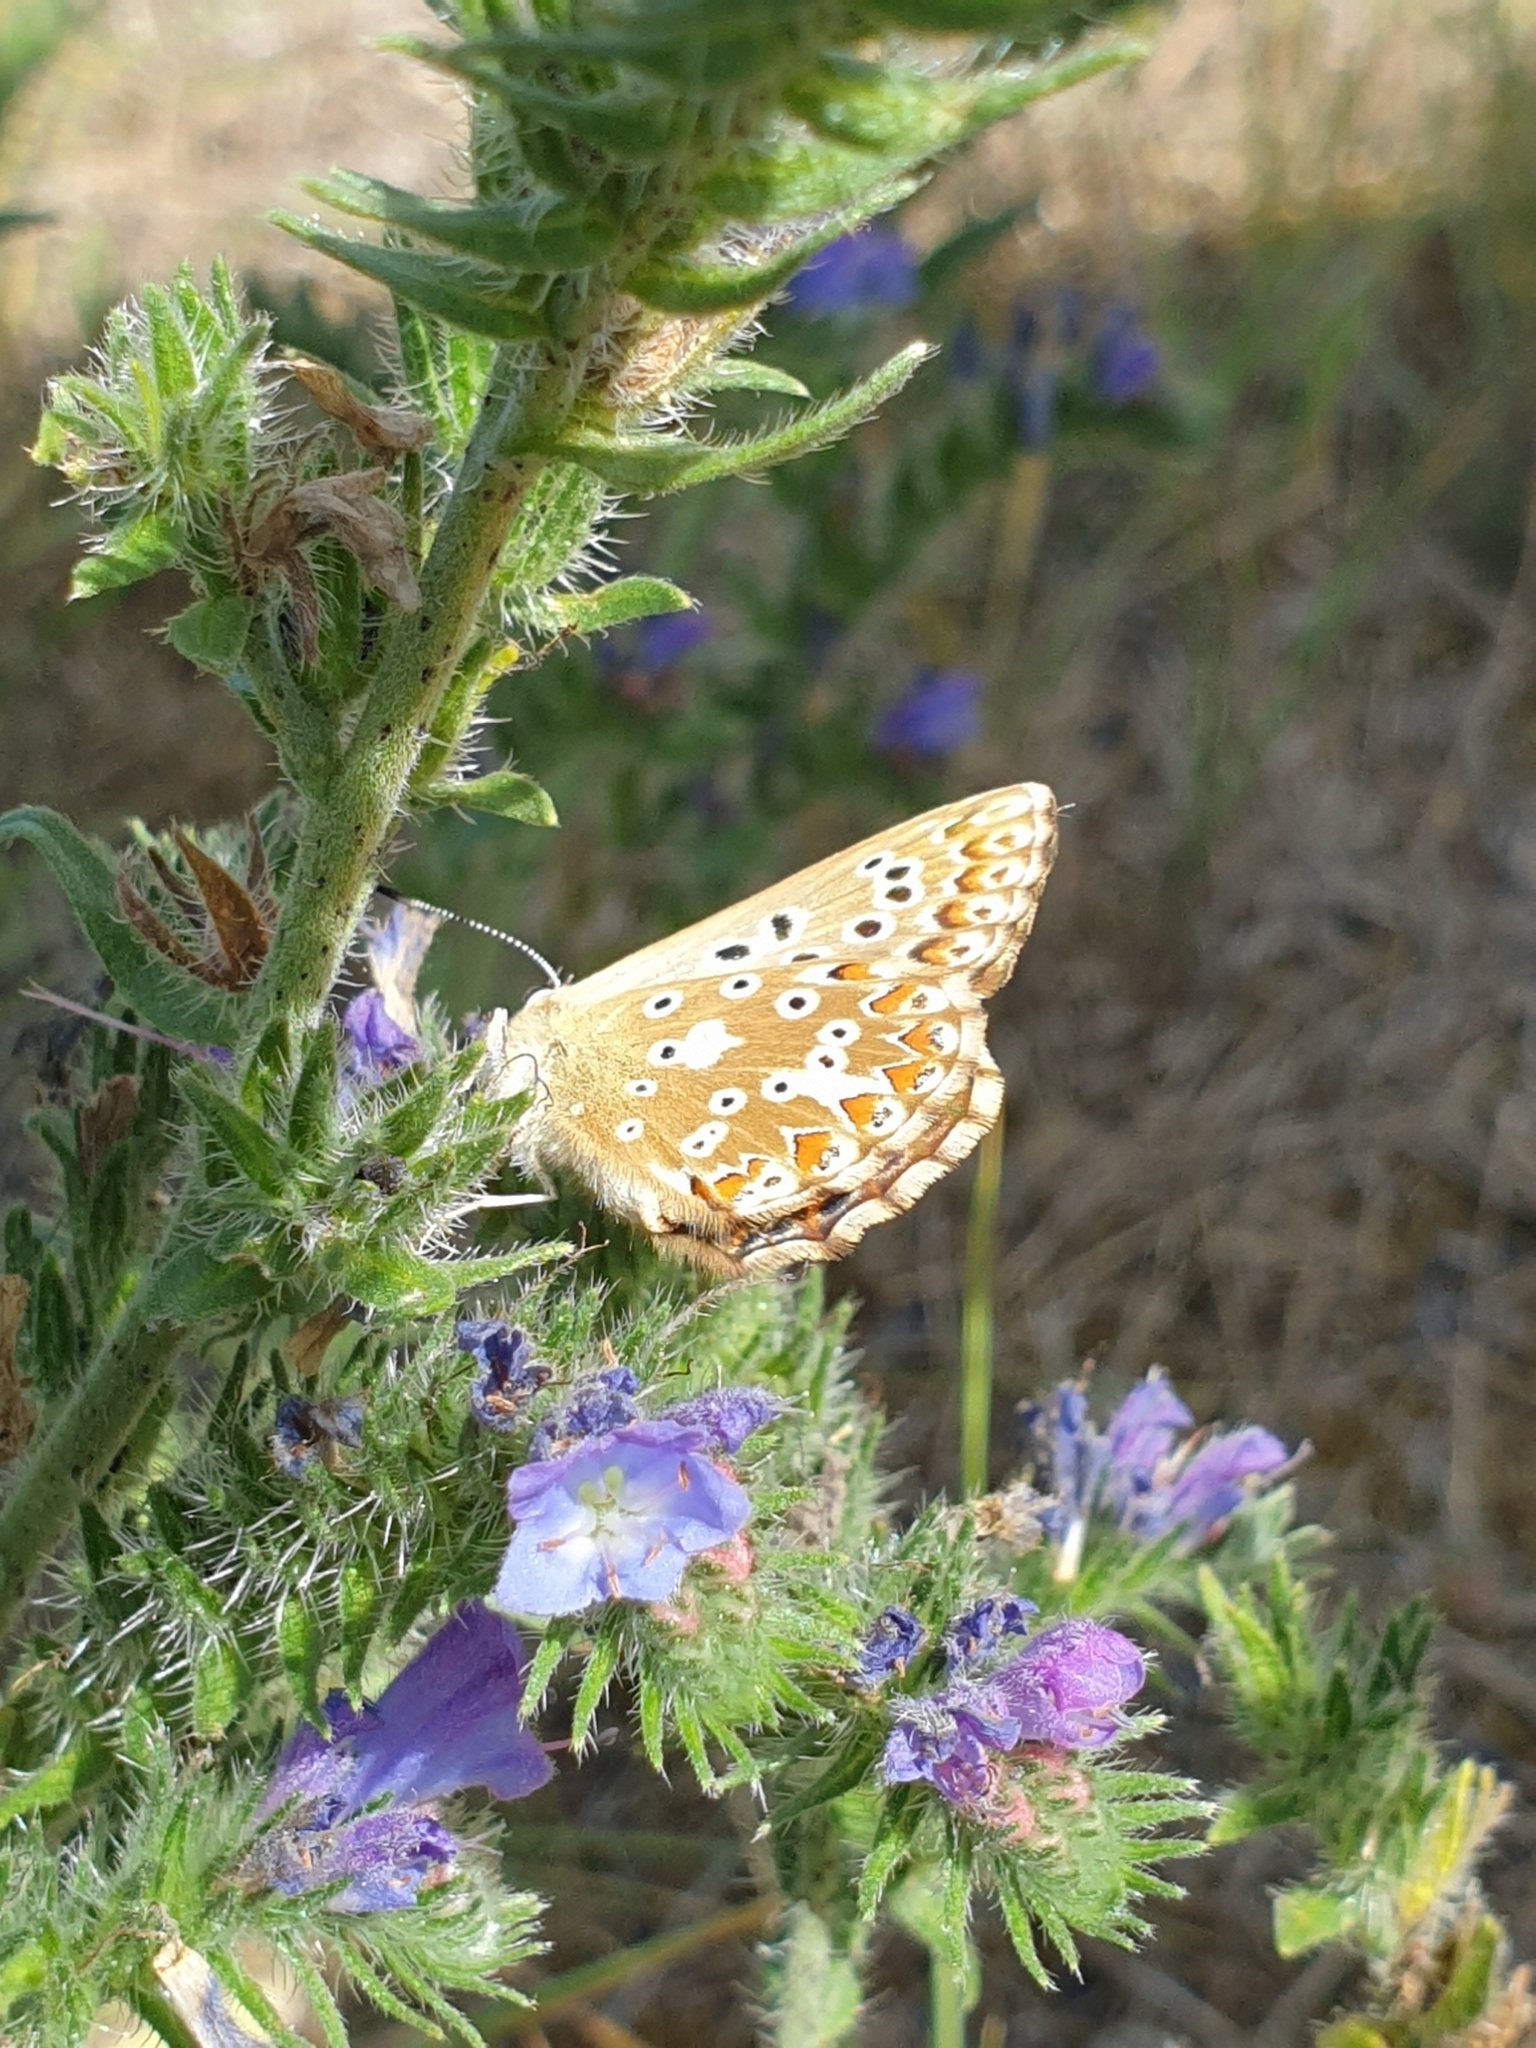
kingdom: Animalia
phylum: Arthropoda
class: Insecta
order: Lepidoptera
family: Lycaenidae
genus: Lysandra
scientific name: Lysandra coridon
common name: Chalkhill blue
